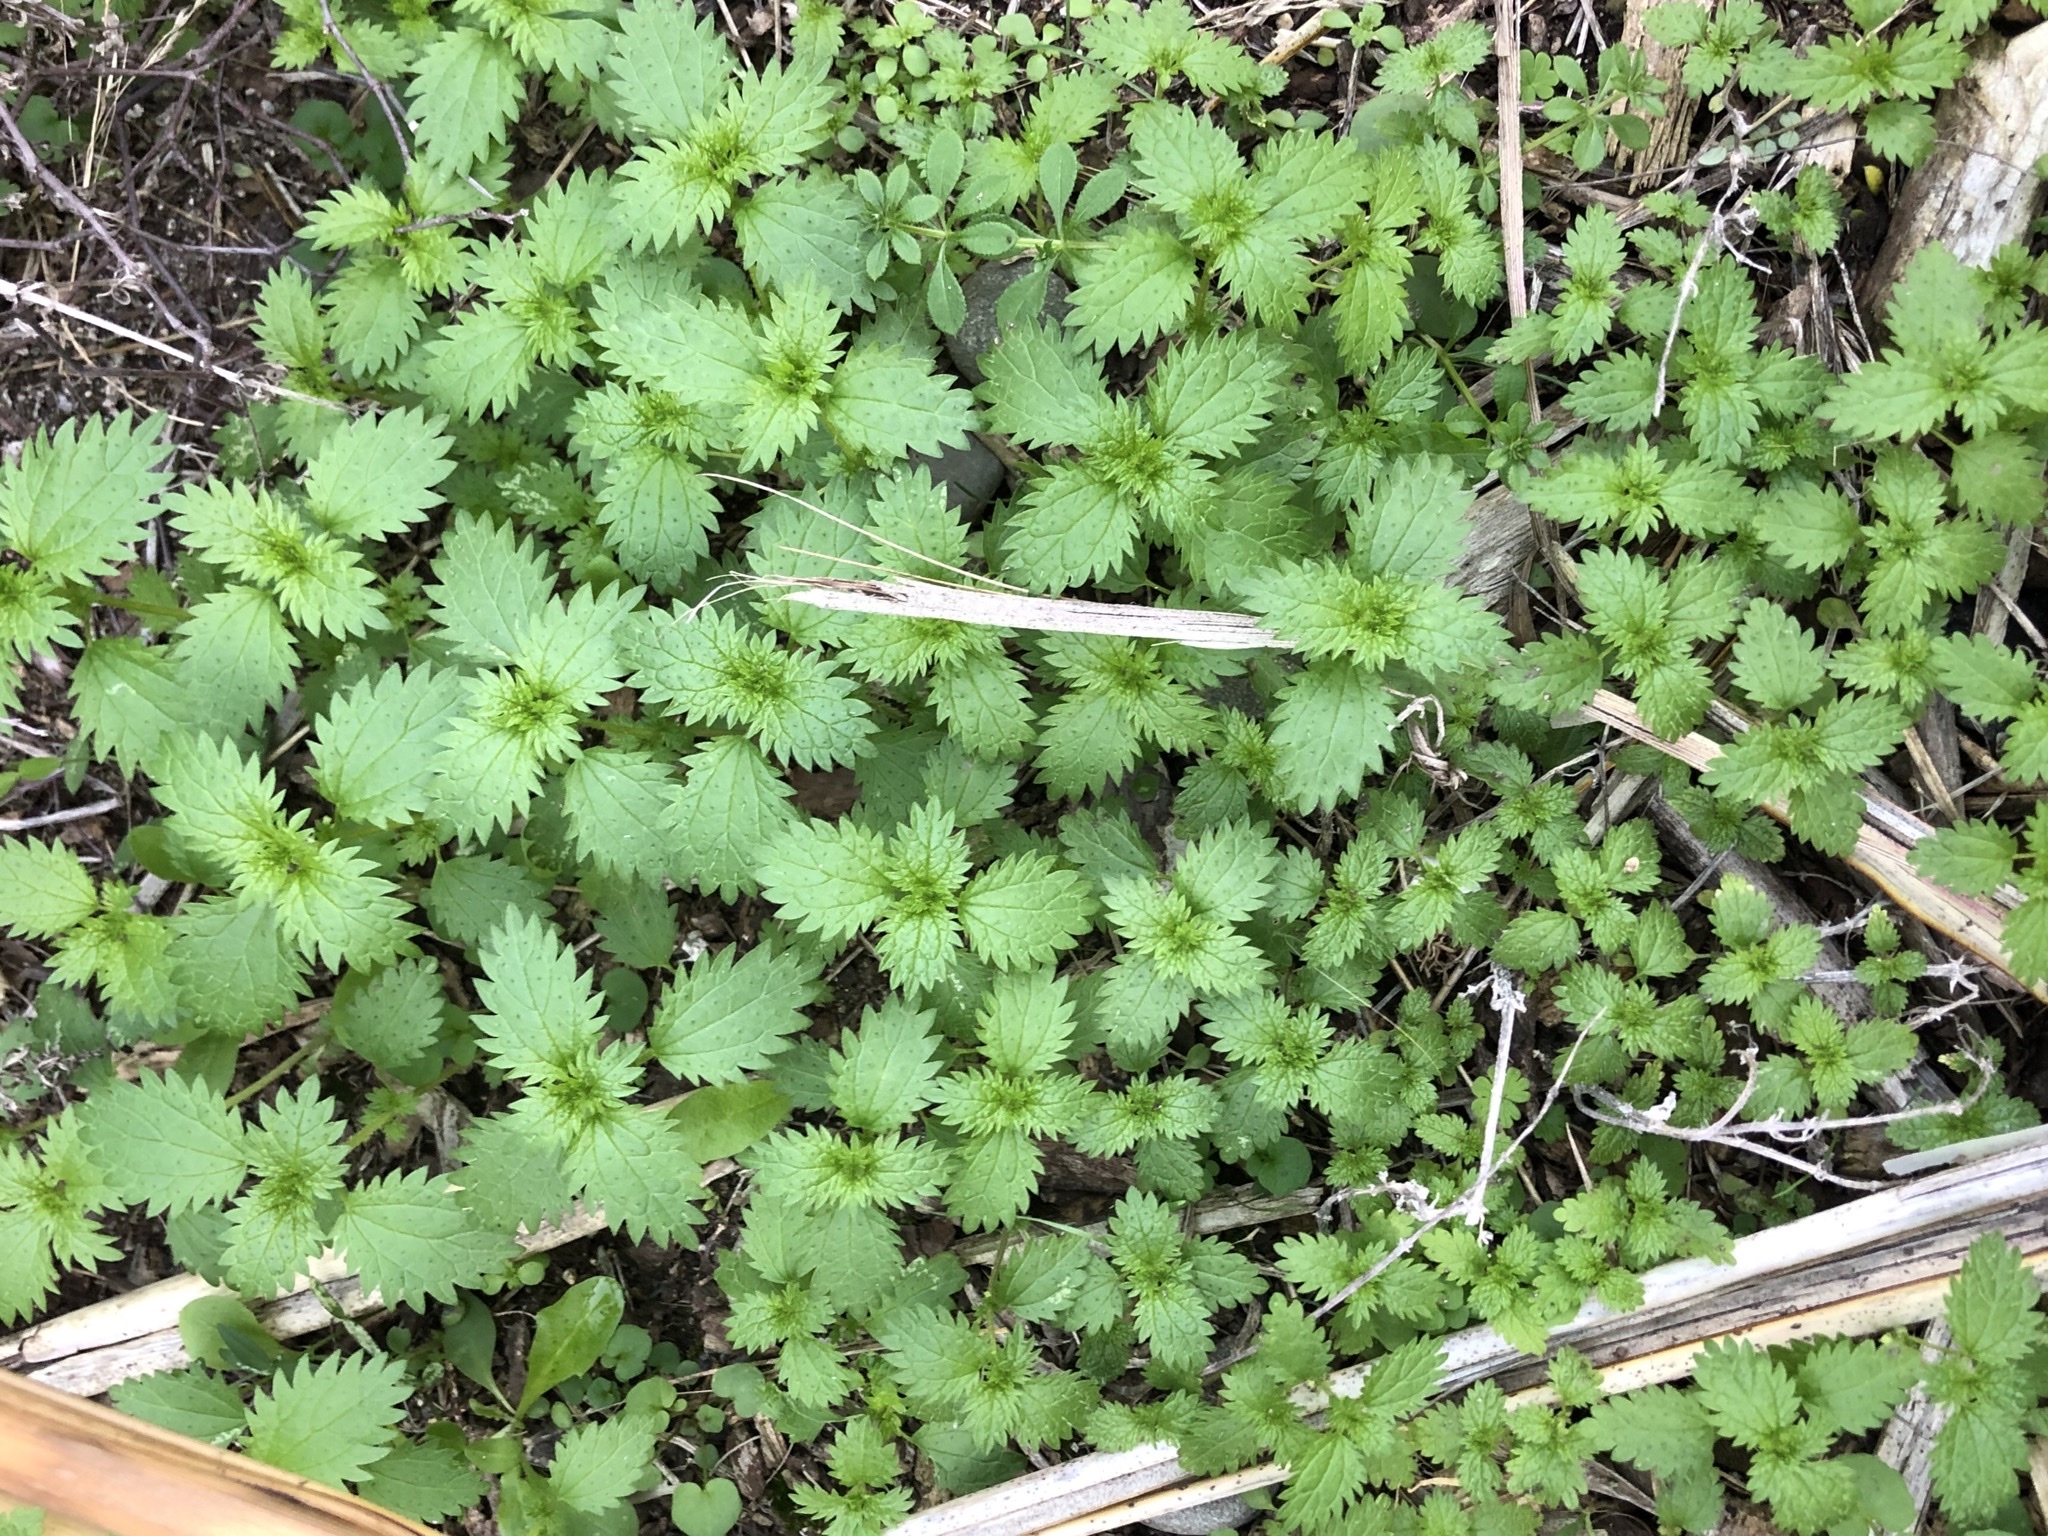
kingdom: Plantae
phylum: Tracheophyta
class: Magnoliopsida
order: Rosales
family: Urticaceae
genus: Urtica
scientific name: Urtica urens
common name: Dwarf nettle
